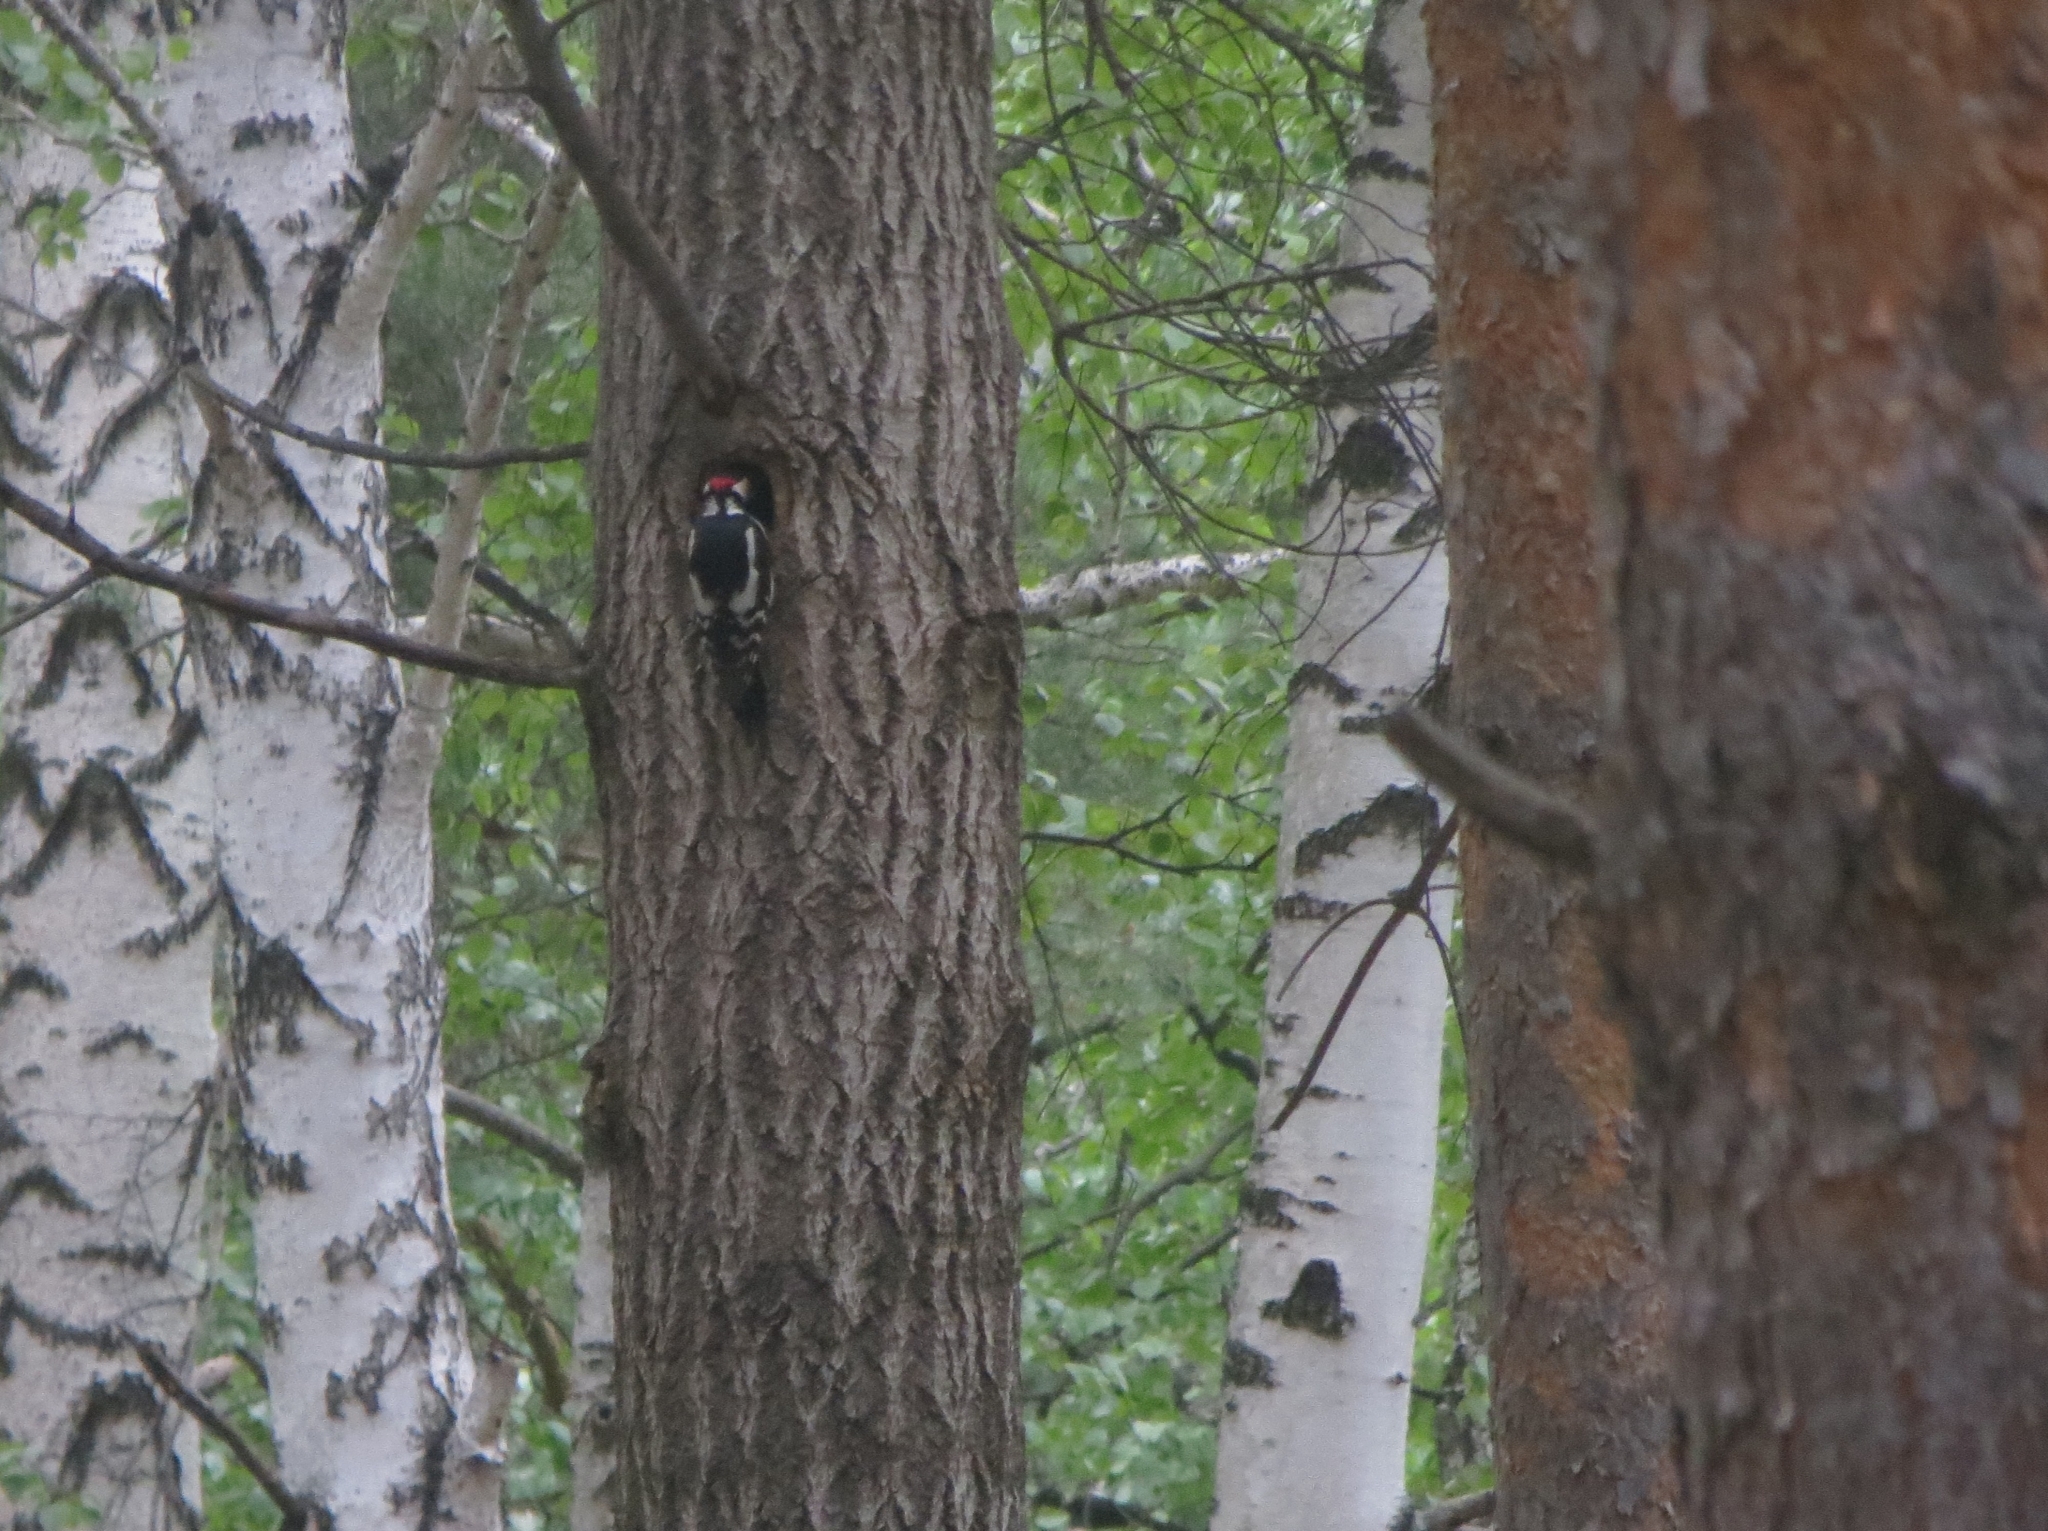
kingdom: Animalia
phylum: Chordata
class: Aves
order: Piciformes
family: Picidae
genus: Dendrocopos
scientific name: Dendrocopos major
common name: Great spotted woodpecker
